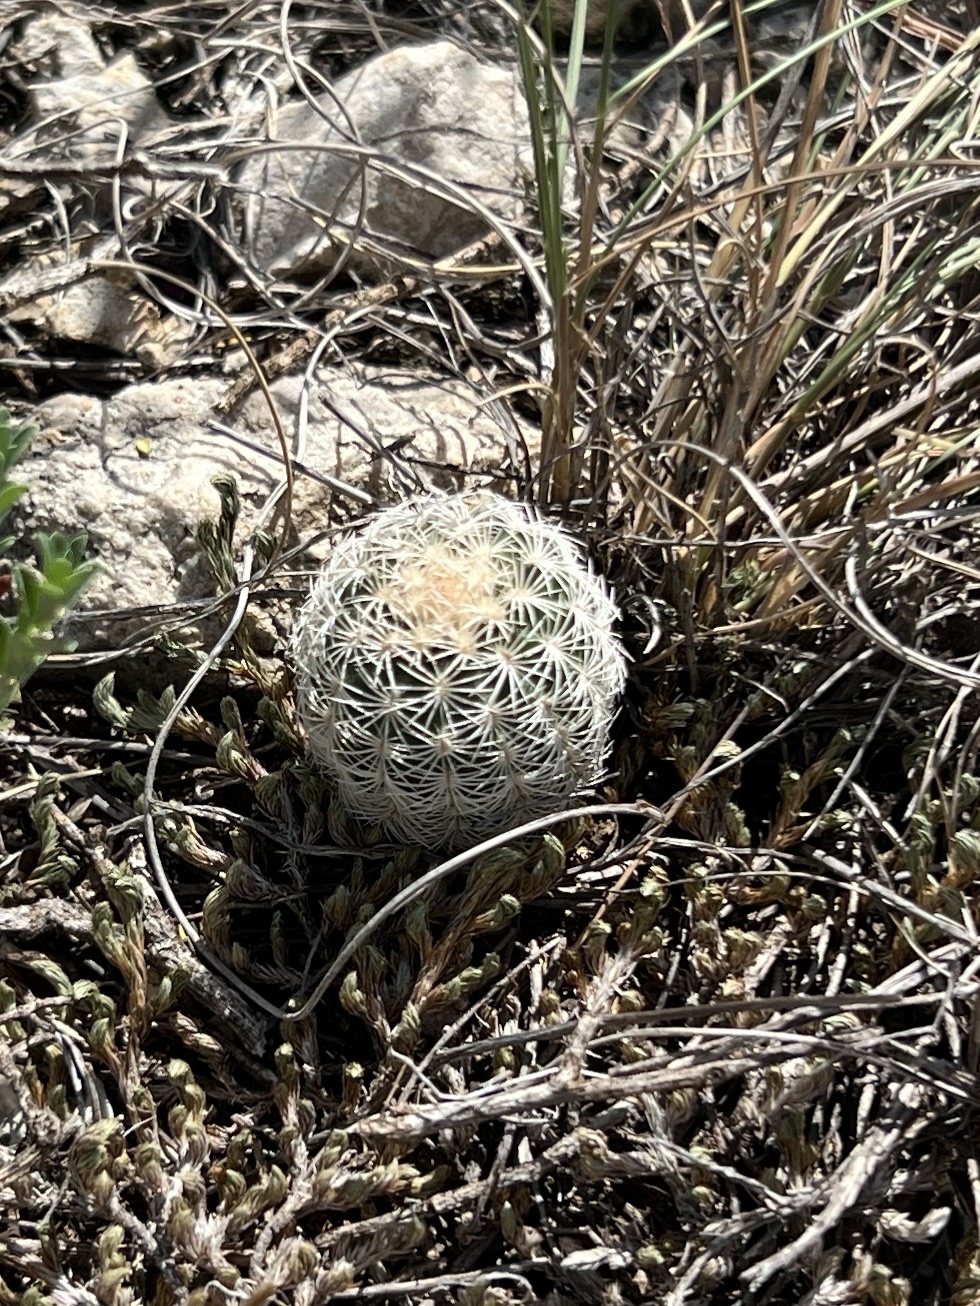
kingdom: Plantae
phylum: Tracheophyta
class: Magnoliopsida
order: Caryophyllales
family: Cactaceae
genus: Echinocereus
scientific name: Echinocereus reichenbachii
